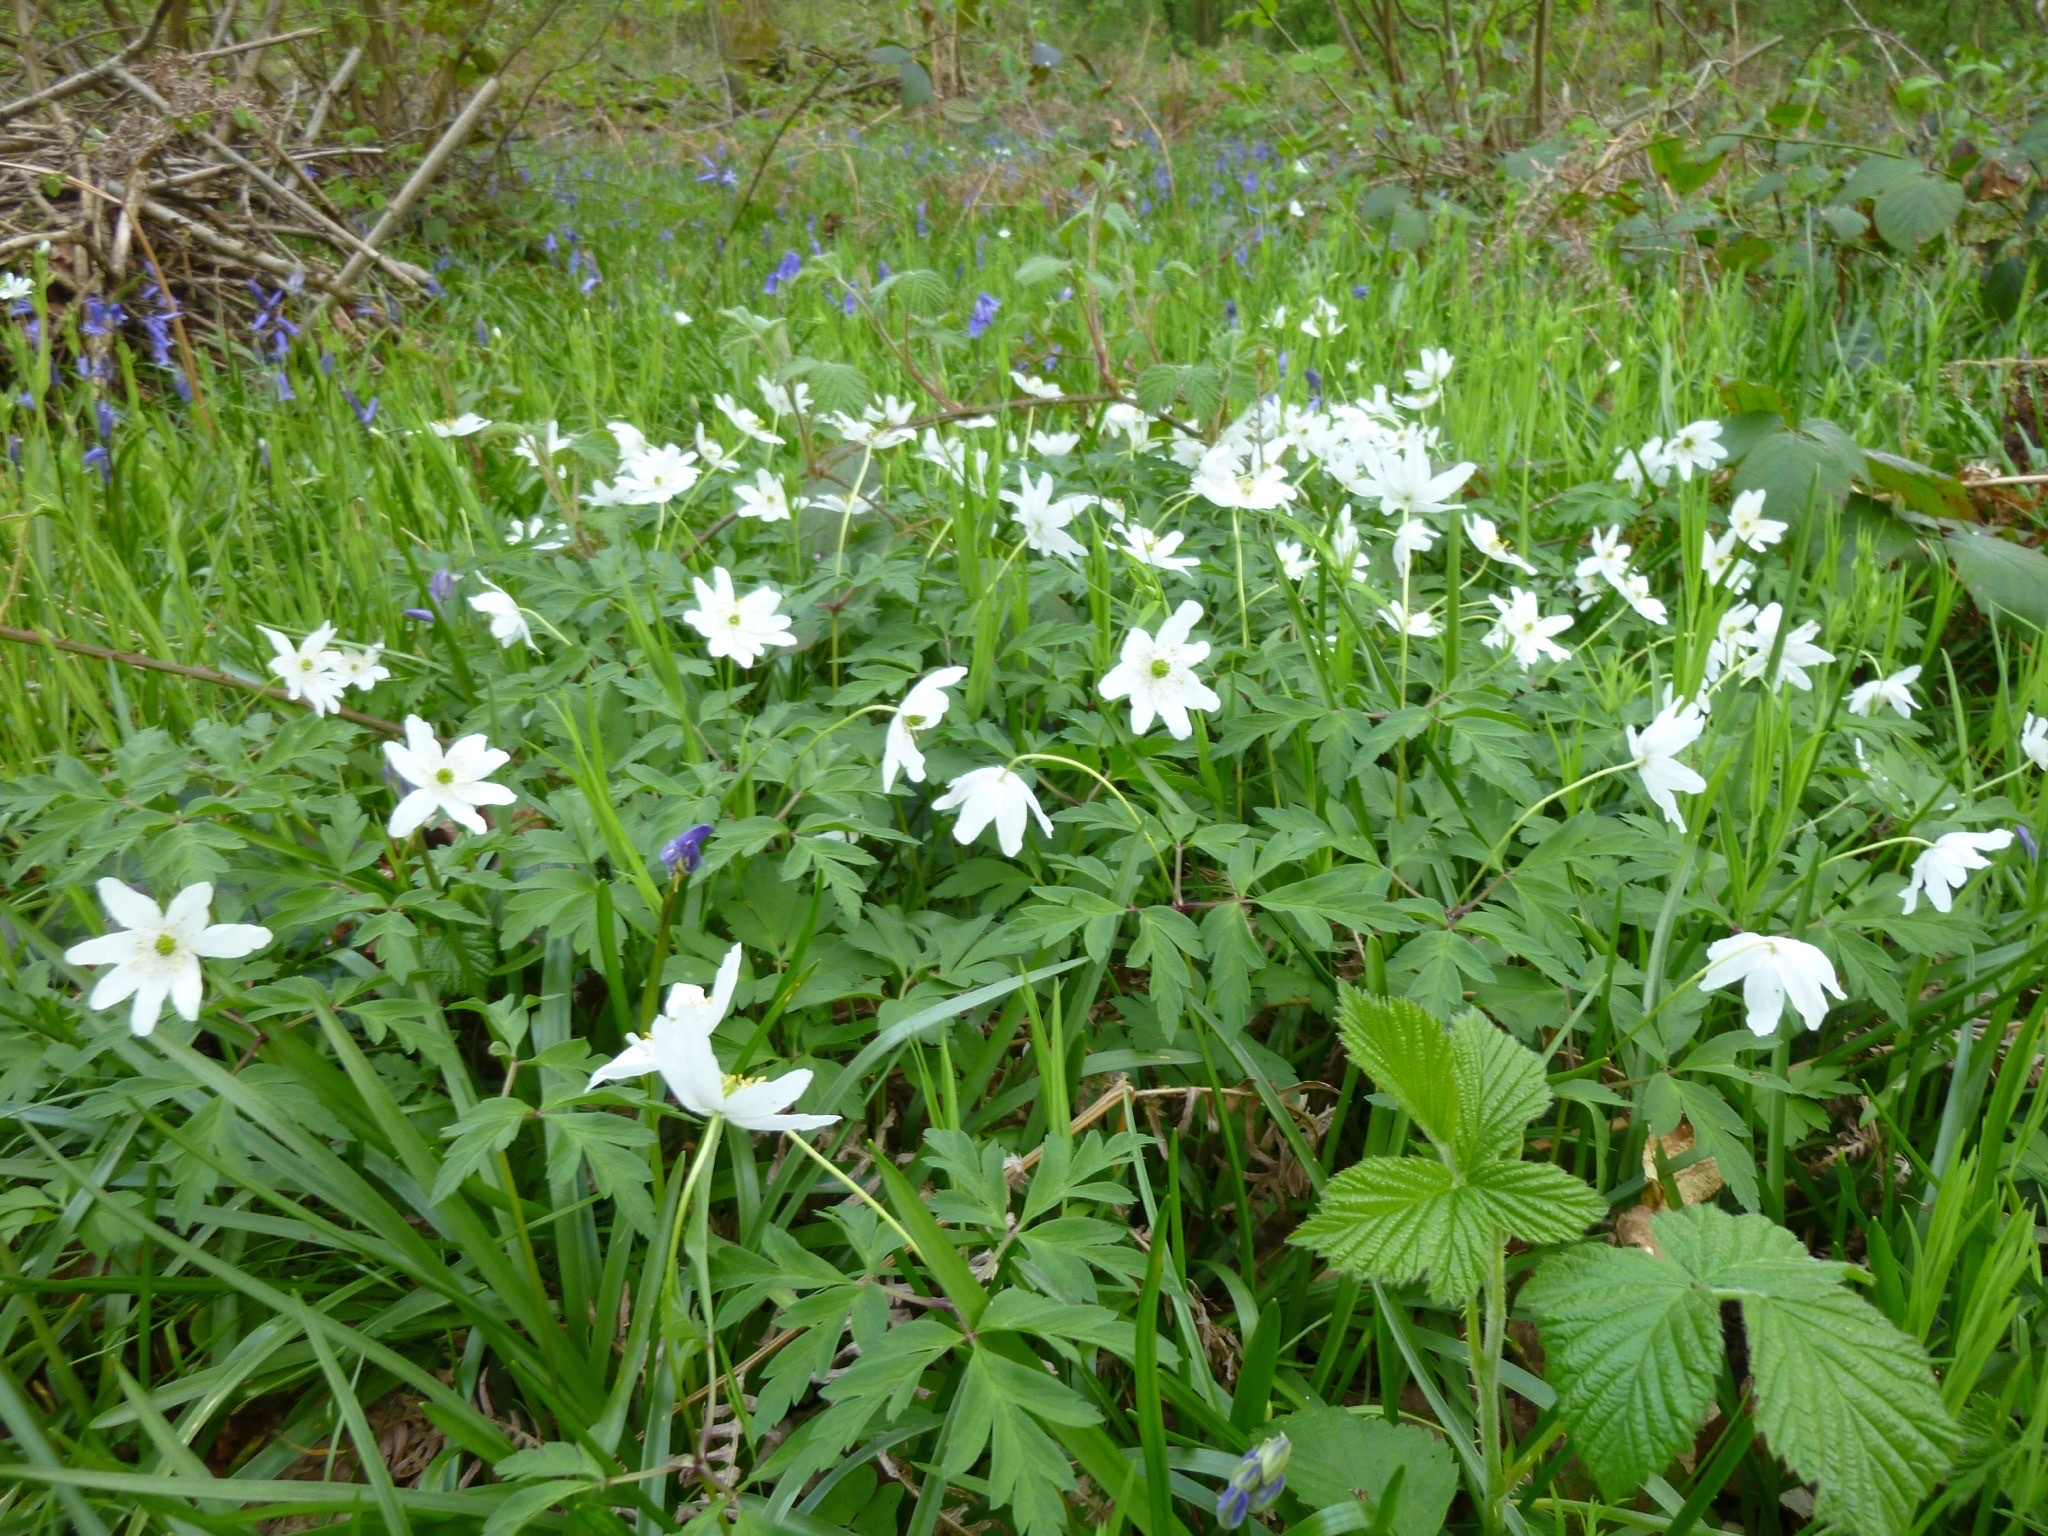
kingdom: Plantae
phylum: Tracheophyta
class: Magnoliopsida
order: Ranunculales
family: Ranunculaceae
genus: Anemone
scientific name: Anemone nemorosa
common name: Wood anemone
